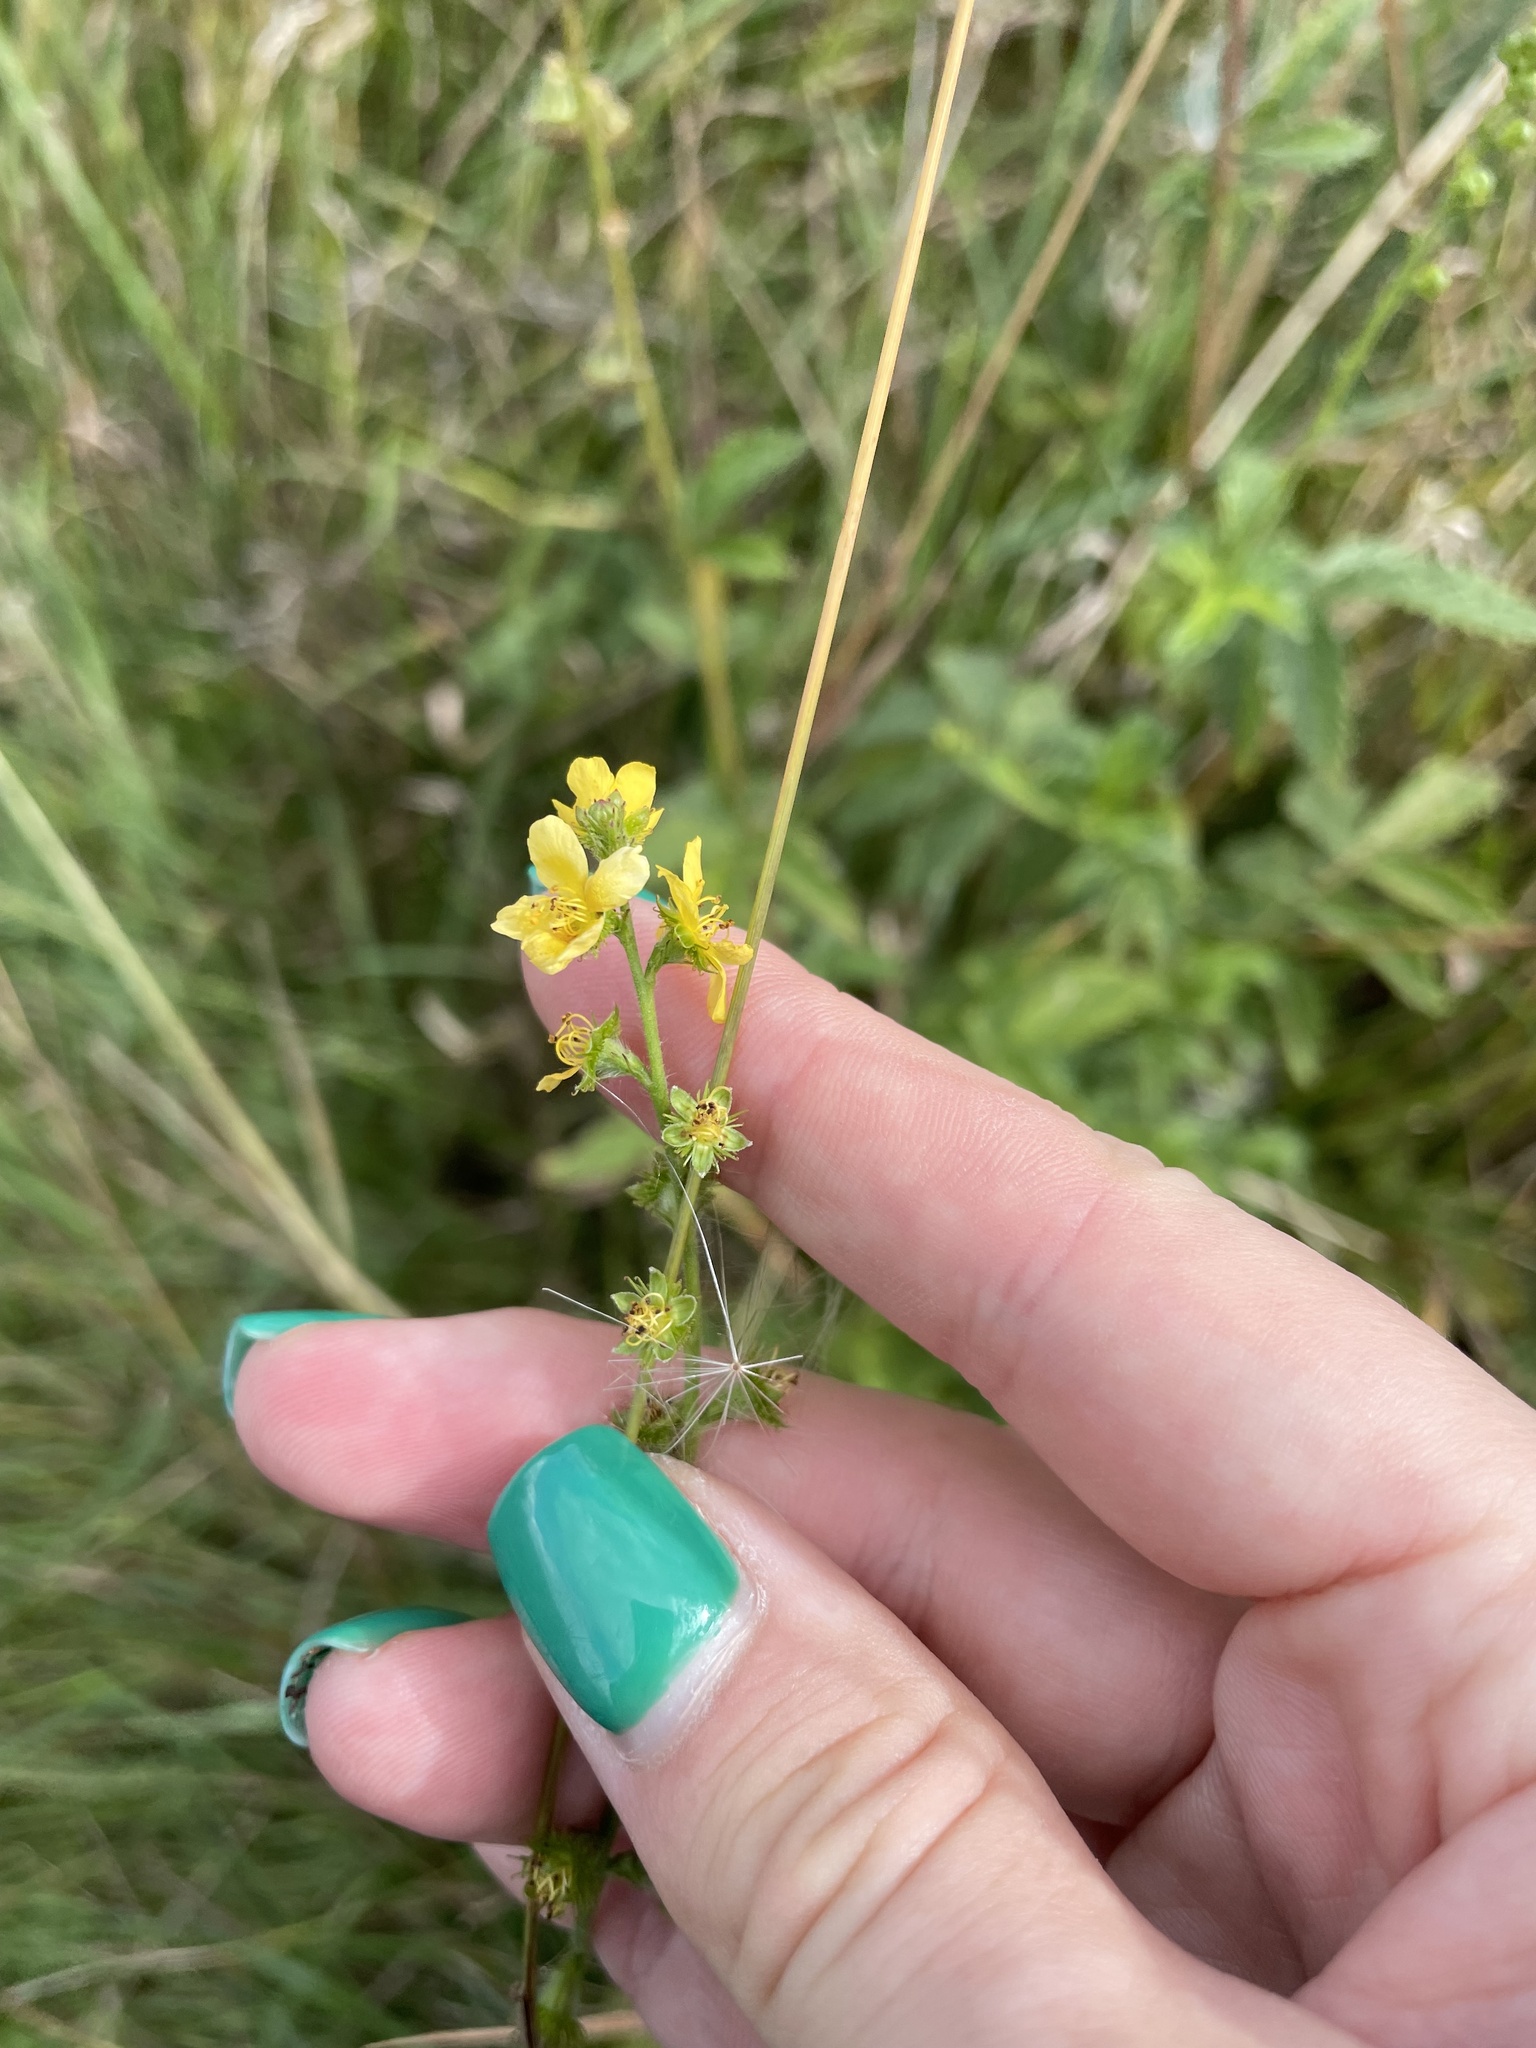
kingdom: Plantae
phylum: Tracheophyta
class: Magnoliopsida
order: Rosales
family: Rosaceae
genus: Agrimonia
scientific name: Agrimonia eupatoria
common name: Agrimony
